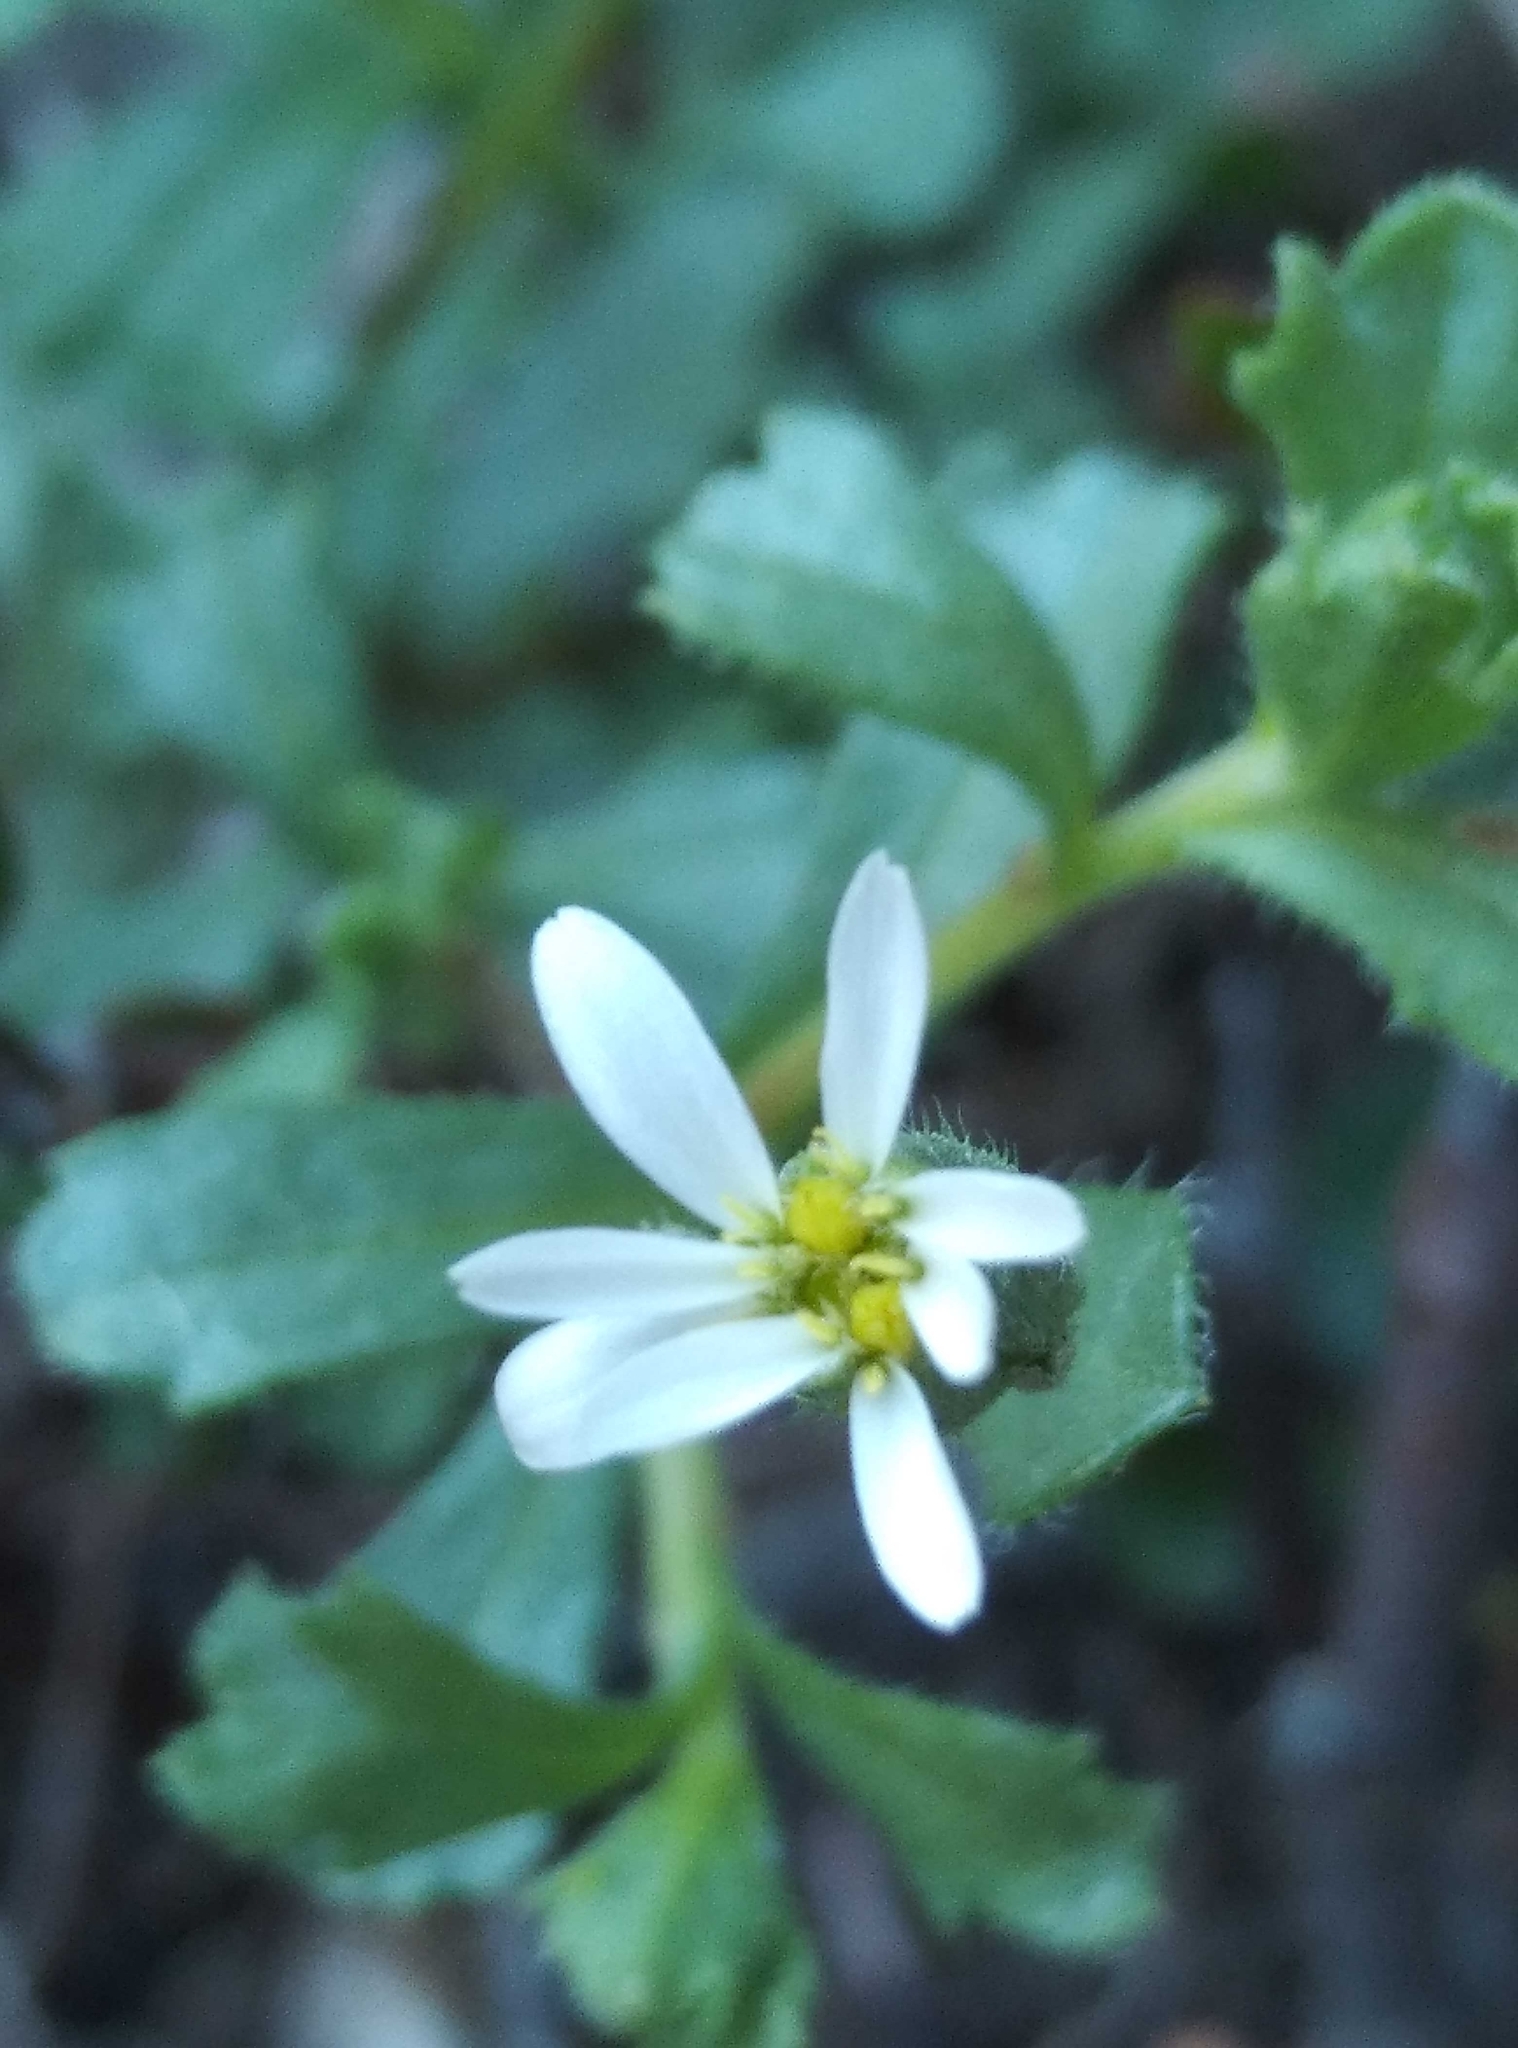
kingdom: Plantae
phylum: Tracheophyta
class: Magnoliopsida
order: Asterales
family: Asteraceae
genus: Vittadinia
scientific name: Vittadinia australis
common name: White fuzzweed
